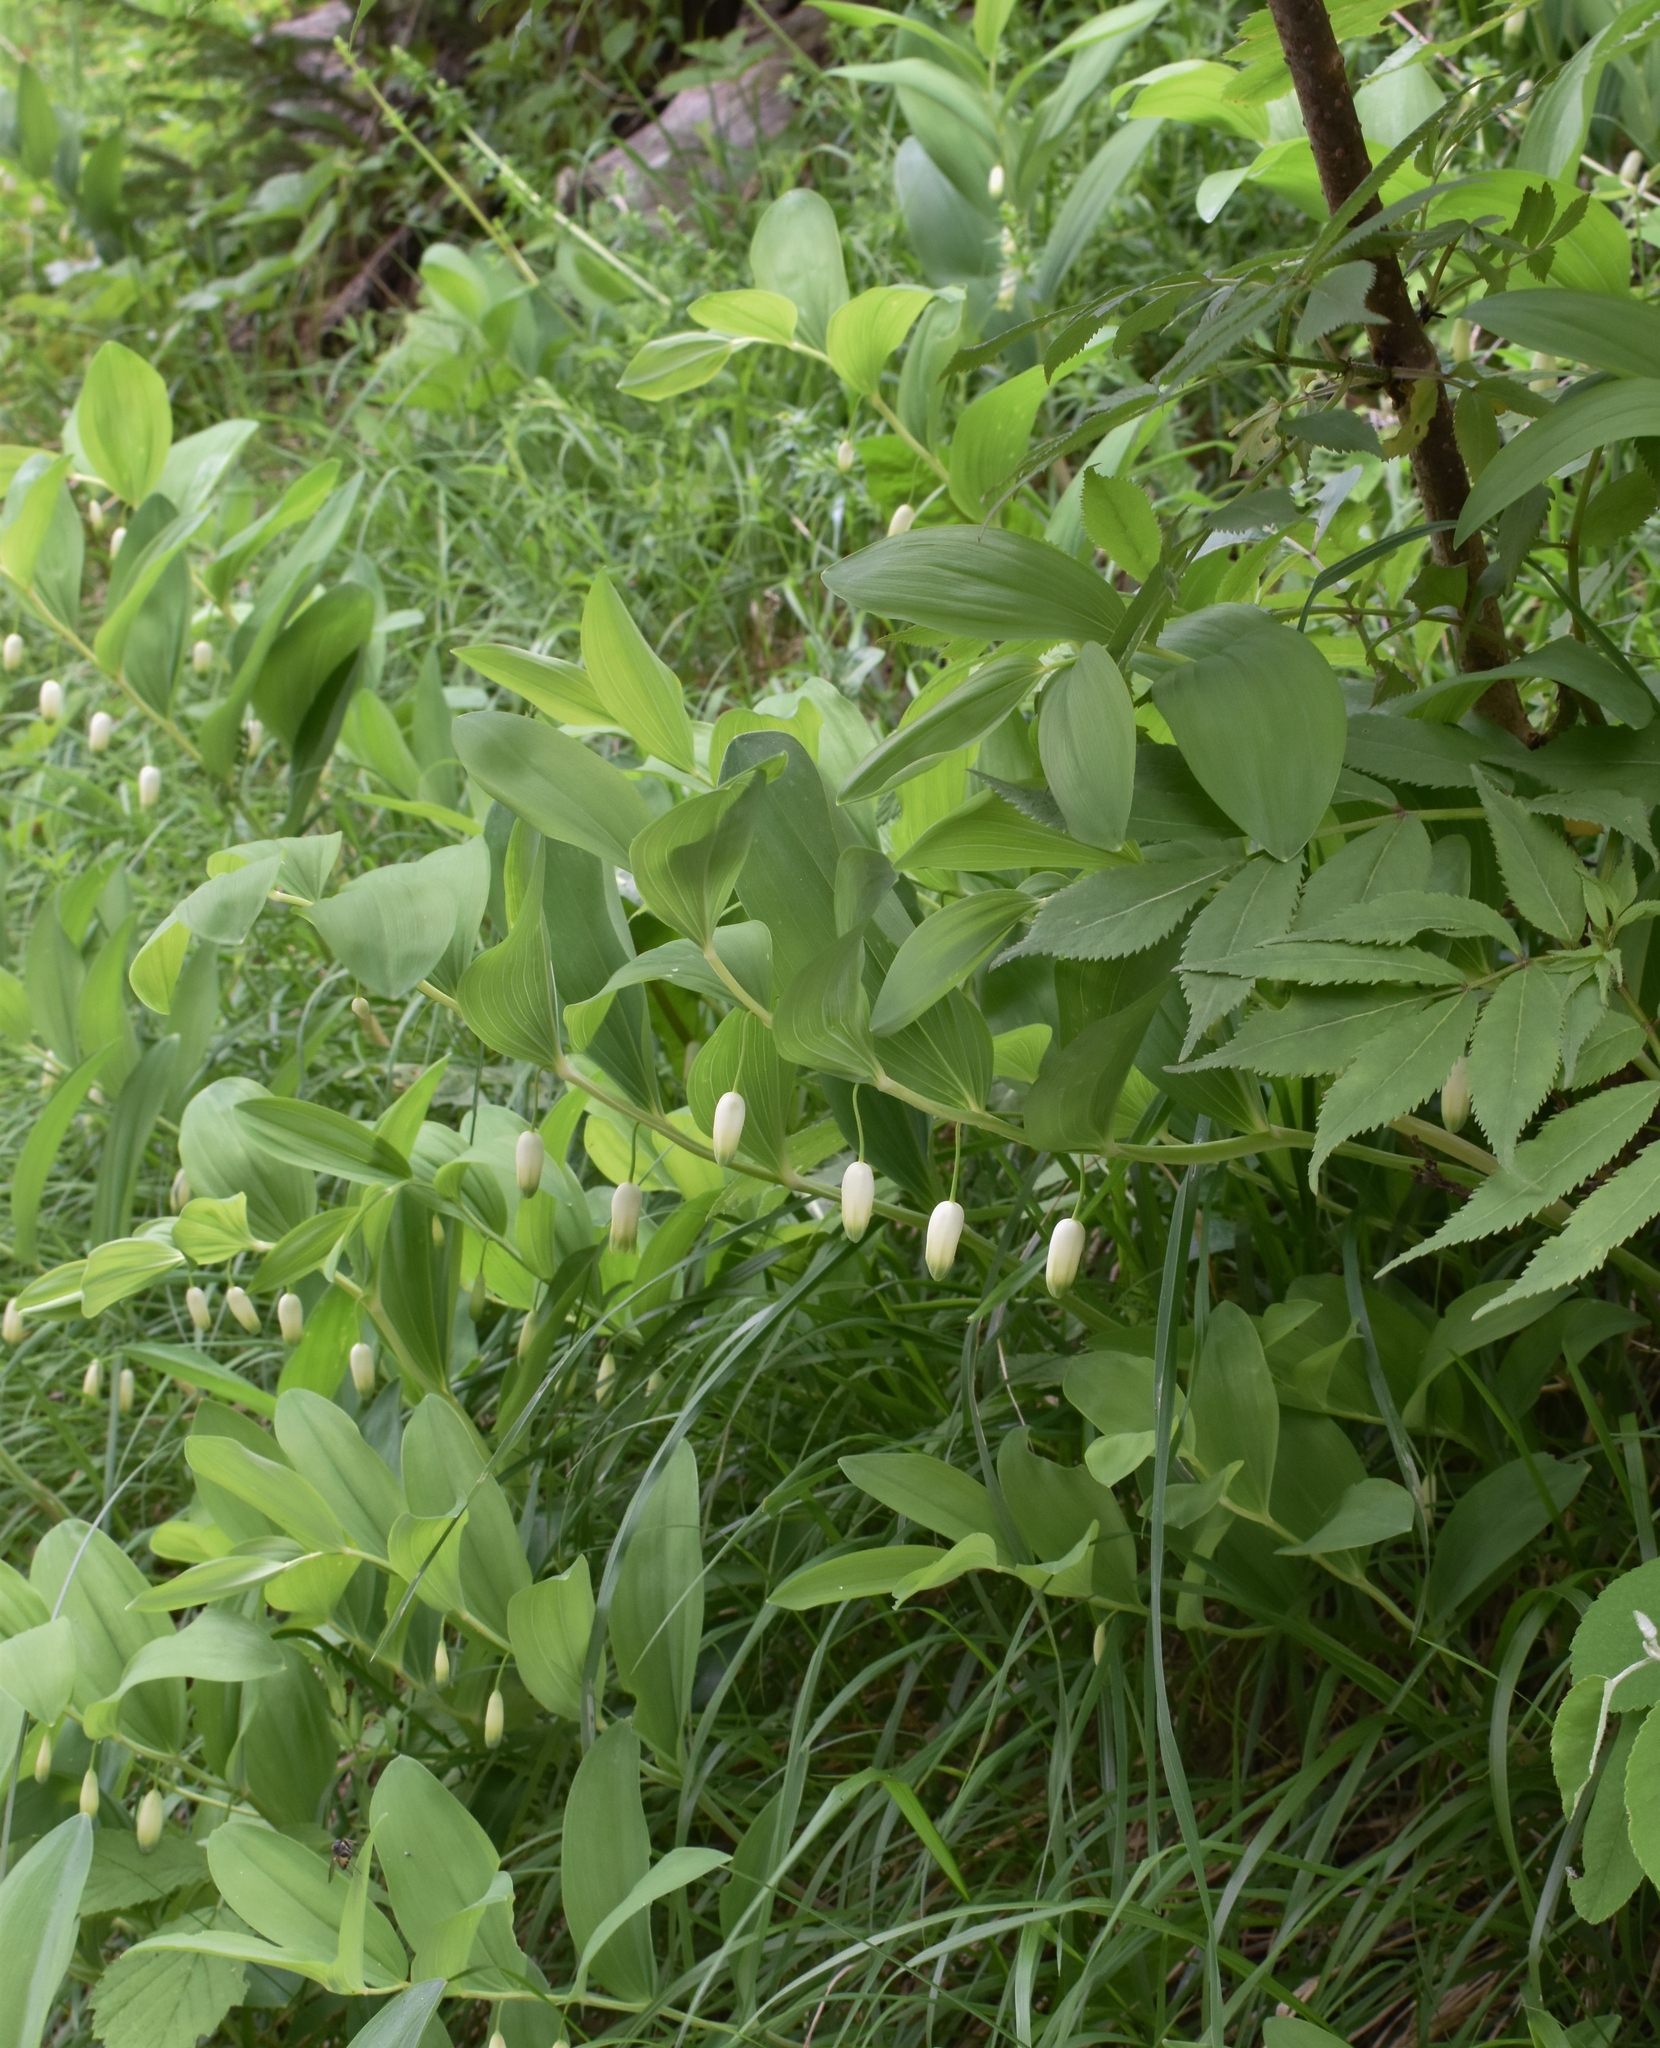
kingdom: Plantae
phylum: Tracheophyta
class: Liliopsida
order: Asparagales
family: Asparagaceae
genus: Polygonatum
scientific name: Polygonatum odoratum
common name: Angular solomon's-seal
